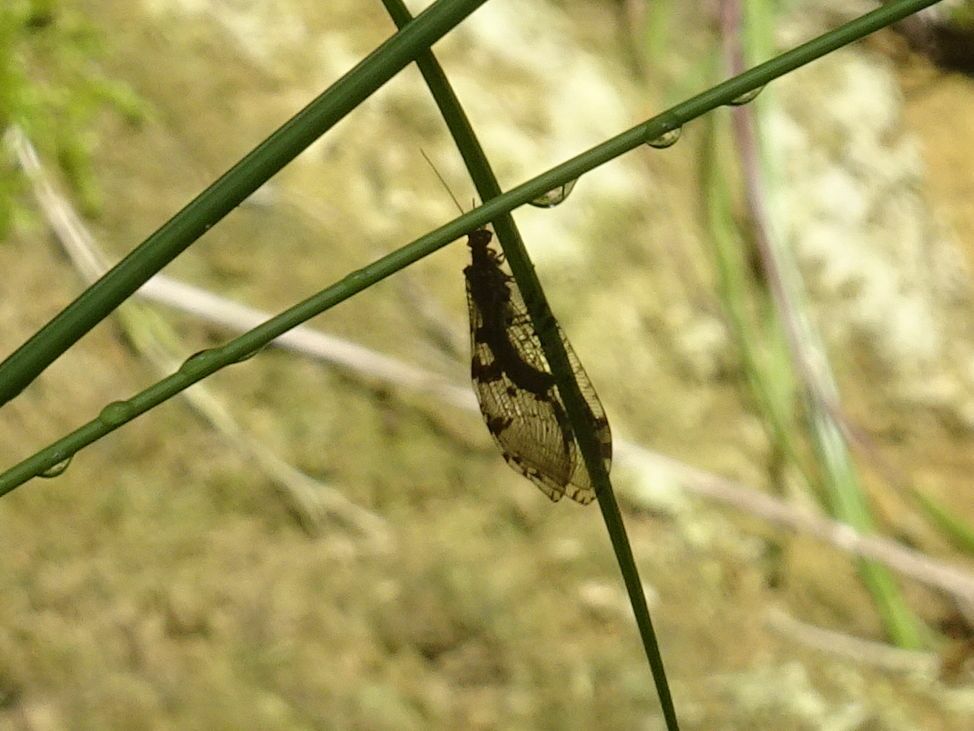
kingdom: Animalia
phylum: Arthropoda
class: Insecta
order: Neuroptera
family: Osmylidae
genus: Osmylus
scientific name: Osmylus fulvicephalus
